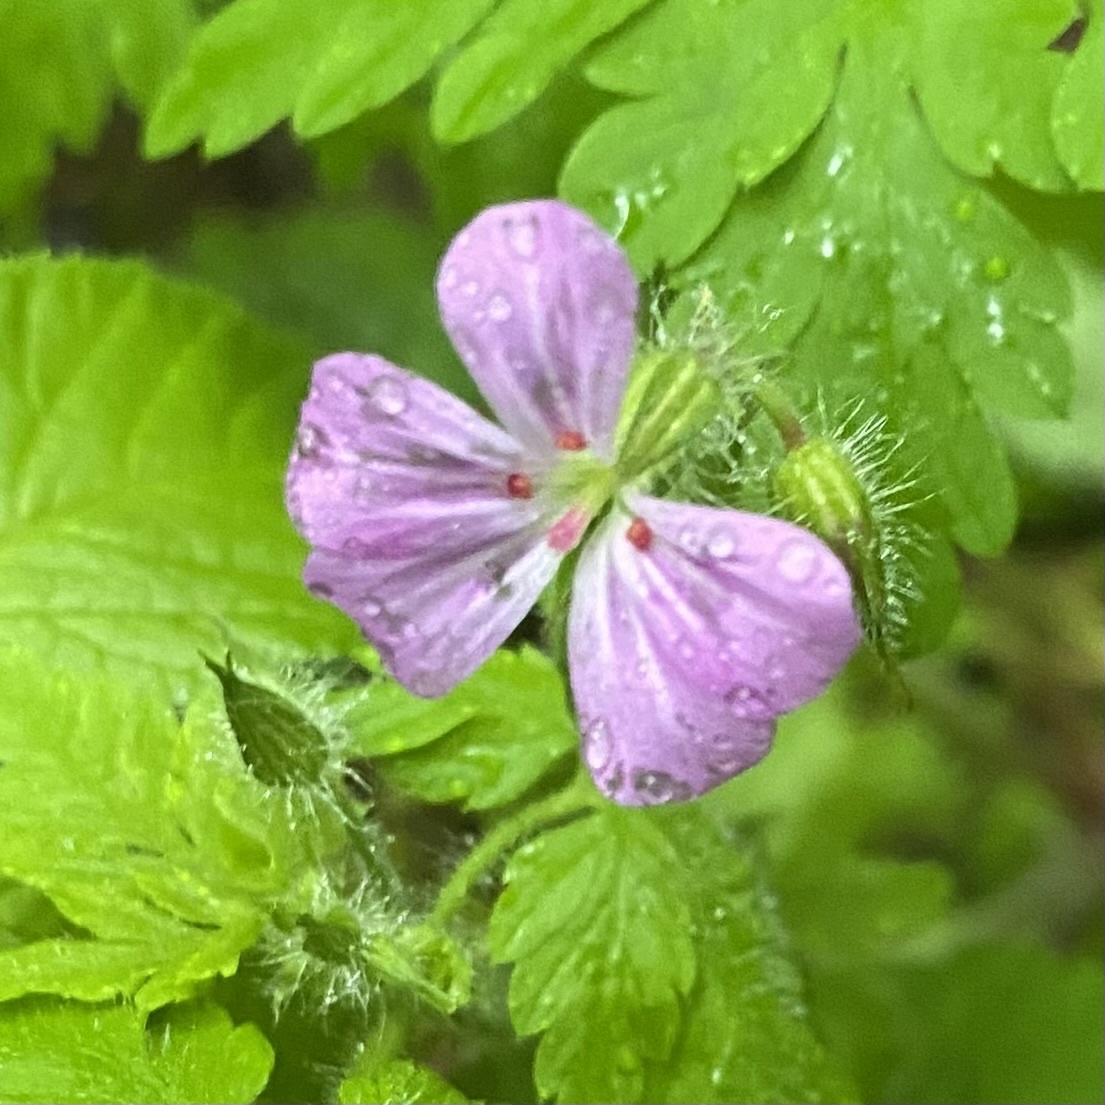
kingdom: Plantae
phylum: Tracheophyta
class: Magnoliopsida
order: Geraniales
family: Geraniaceae
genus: Geranium
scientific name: Geranium robertianum
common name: Herb-robert
